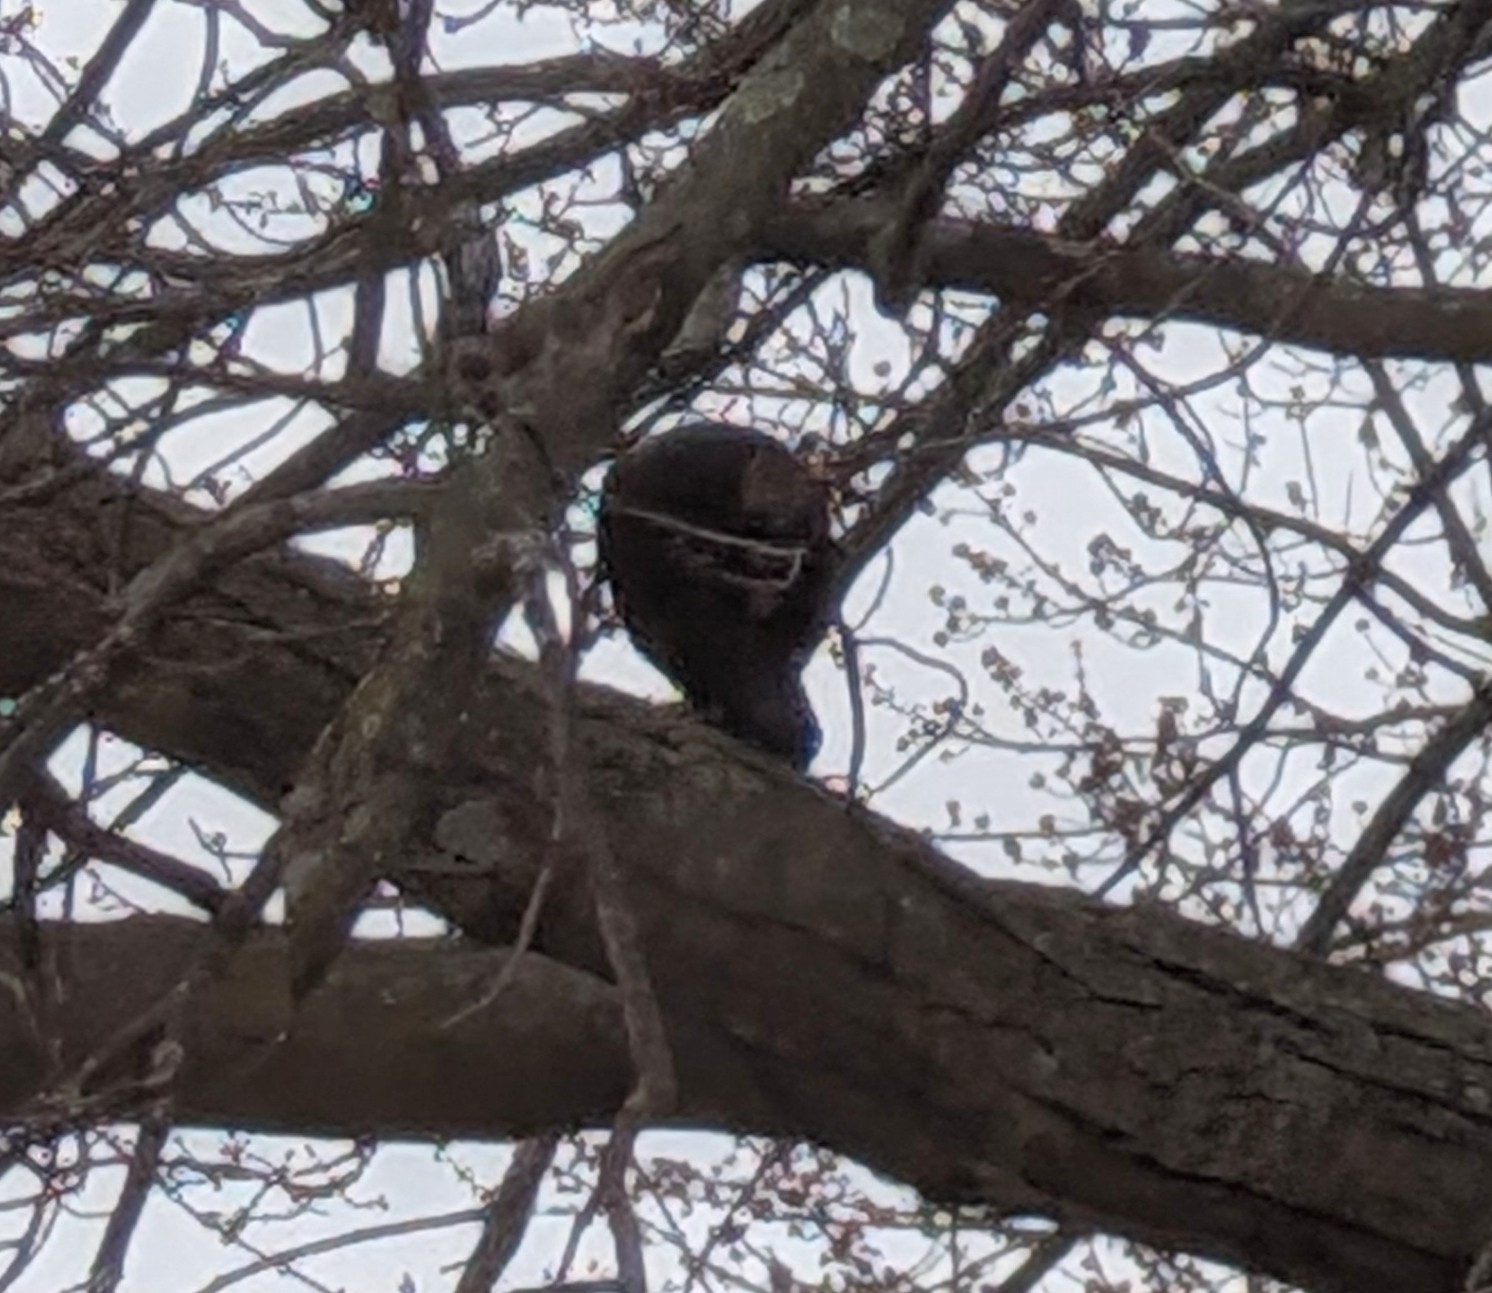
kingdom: Animalia
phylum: Chordata
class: Aves
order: Passeriformes
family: Corvidae
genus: Corvus
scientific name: Corvus brachyrhynchos
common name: American crow
